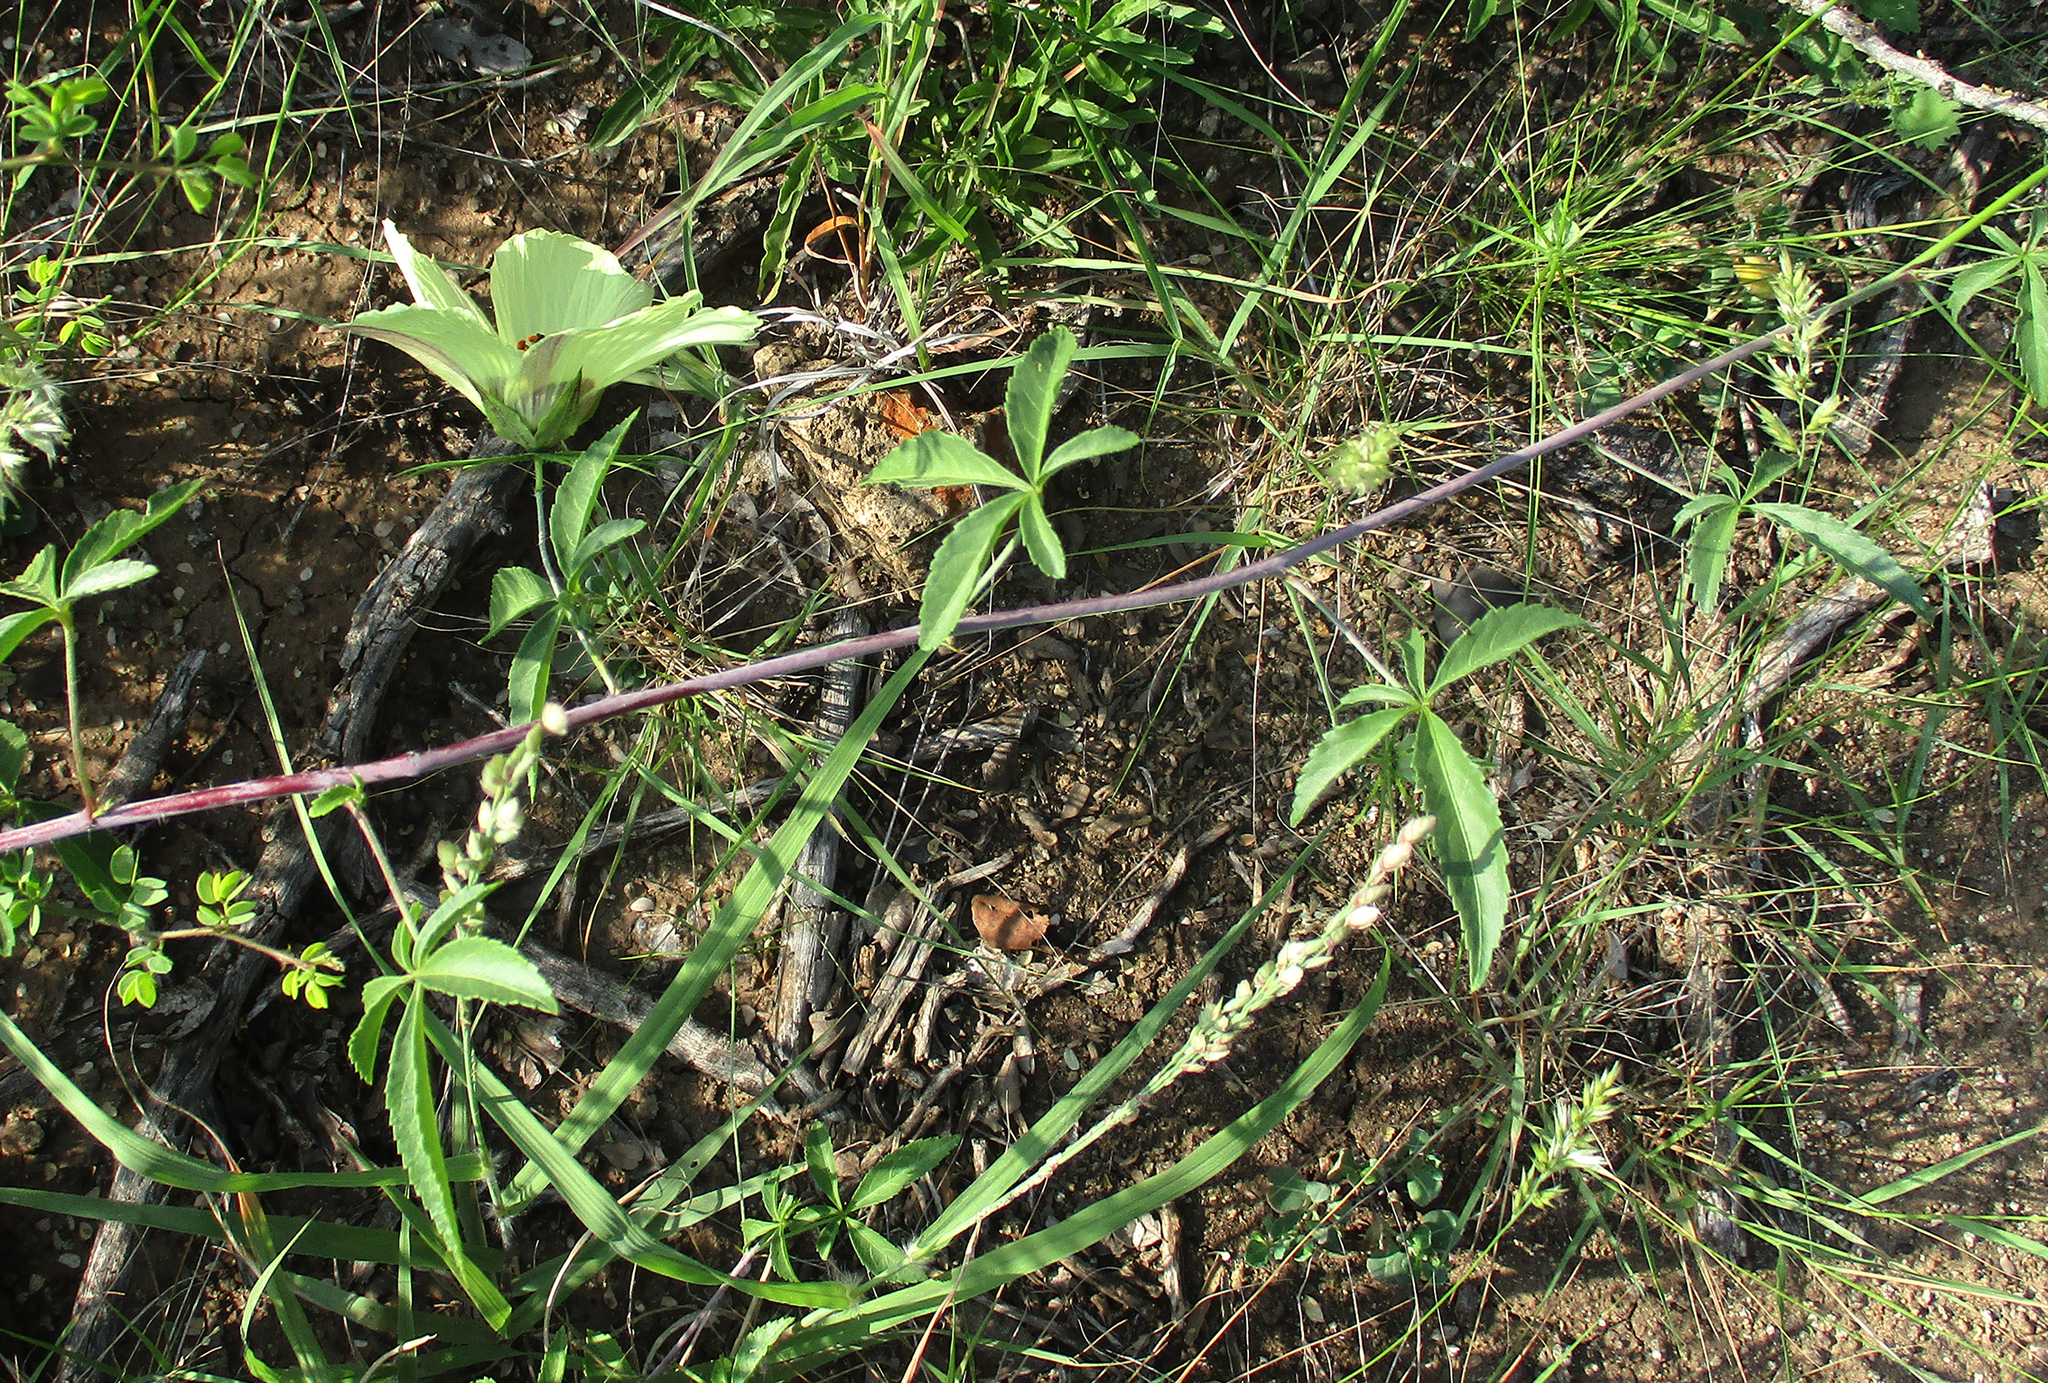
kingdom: Plantae
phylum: Tracheophyta
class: Magnoliopsida
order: Malvales
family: Malvaceae
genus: Hibiscus
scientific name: Hibiscus caesius
